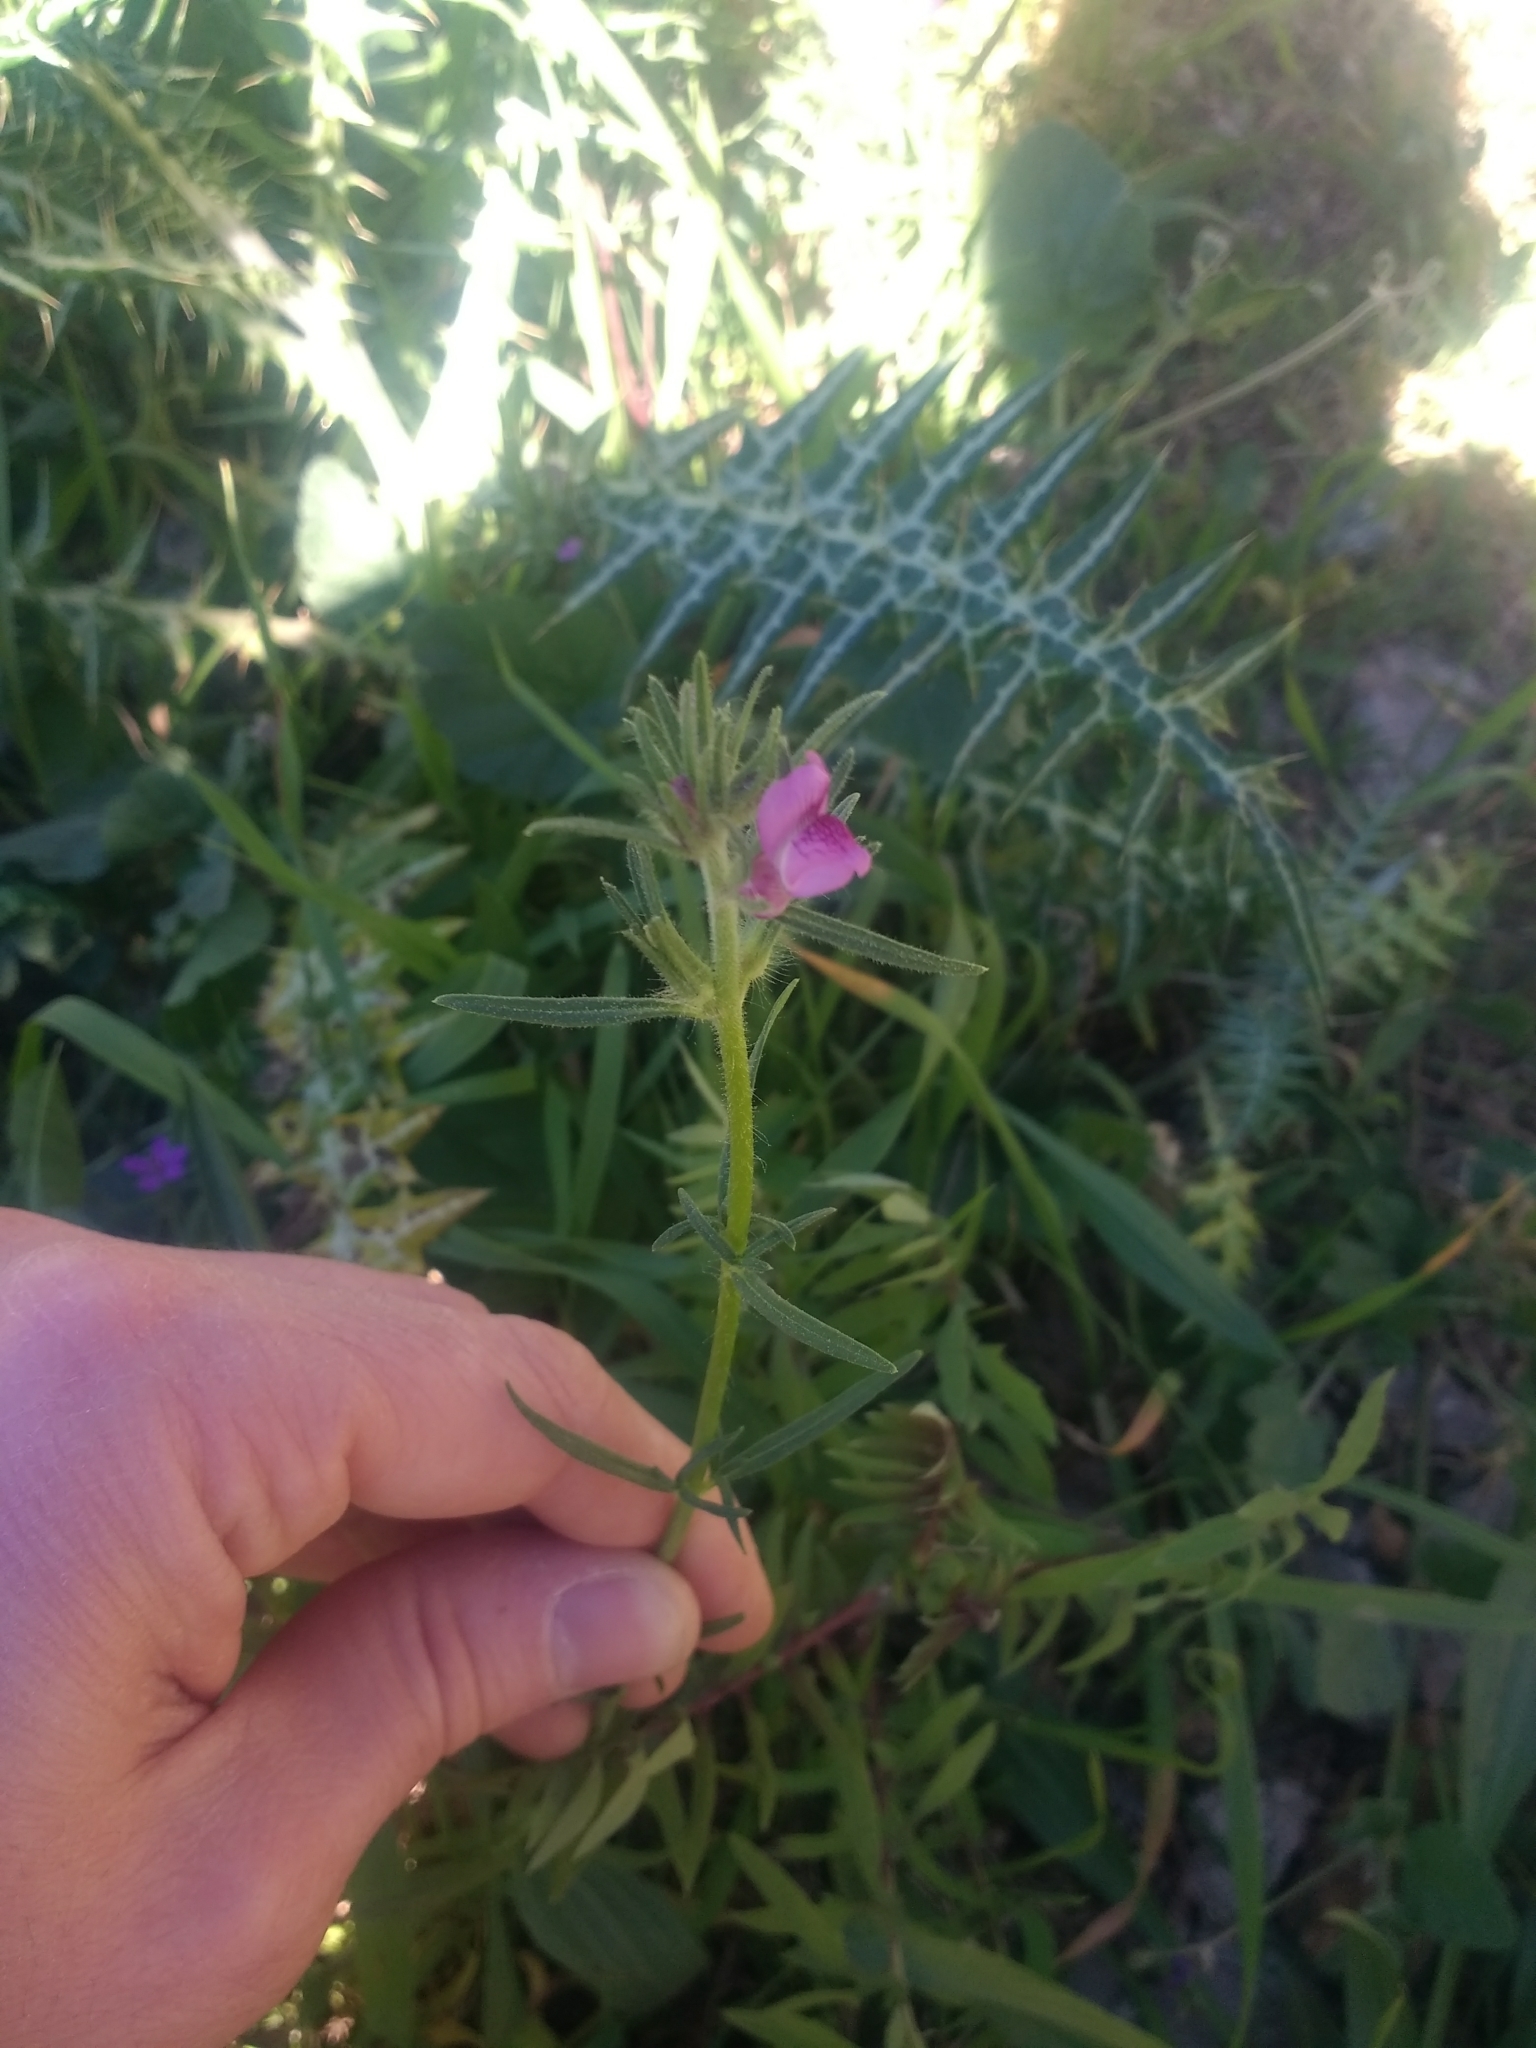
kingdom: Plantae
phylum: Tracheophyta
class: Magnoliopsida
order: Lamiales
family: Plantaginaceae
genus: Misopates
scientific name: Misopates orontium
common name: Weasel's-snout
